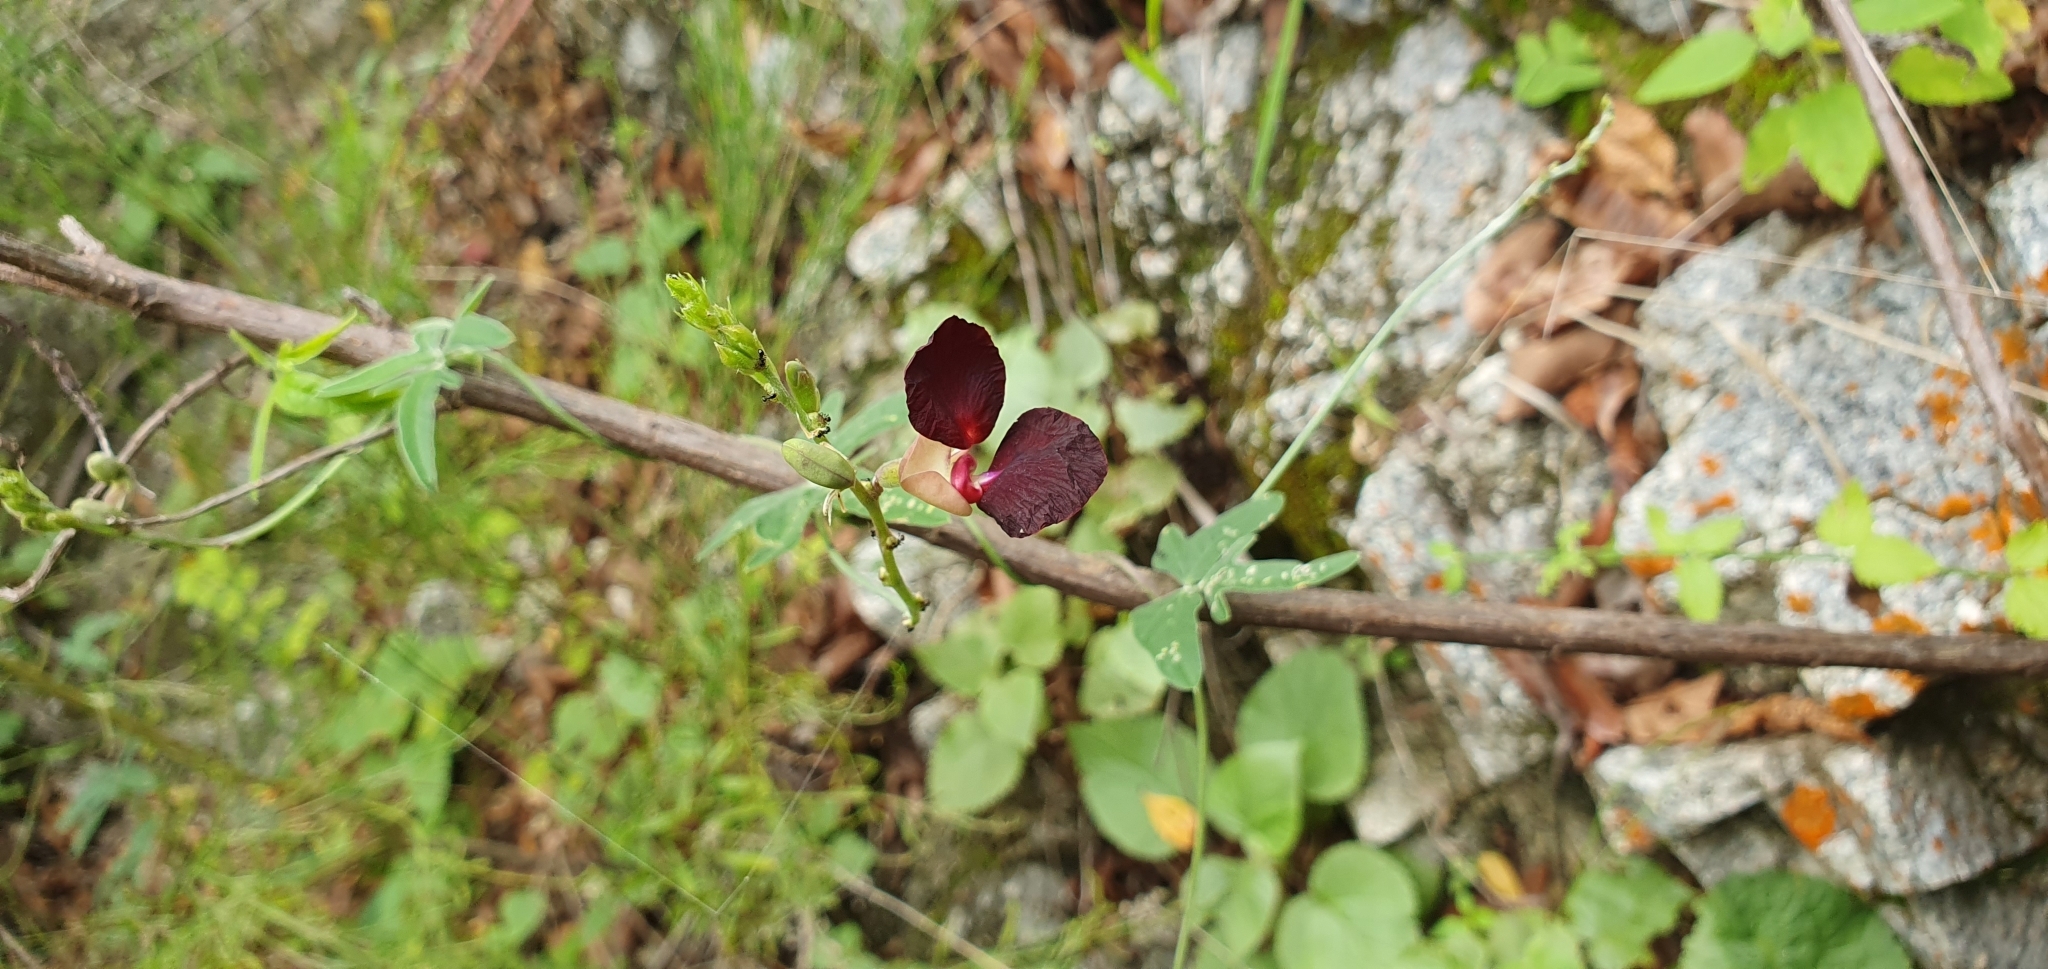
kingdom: Plantae
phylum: Tracheophyta
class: Magnoliopsida
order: Fabales
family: Fabaceae
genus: Macroptilium
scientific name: Macroptilium atropurpureum
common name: Purple bushbean
